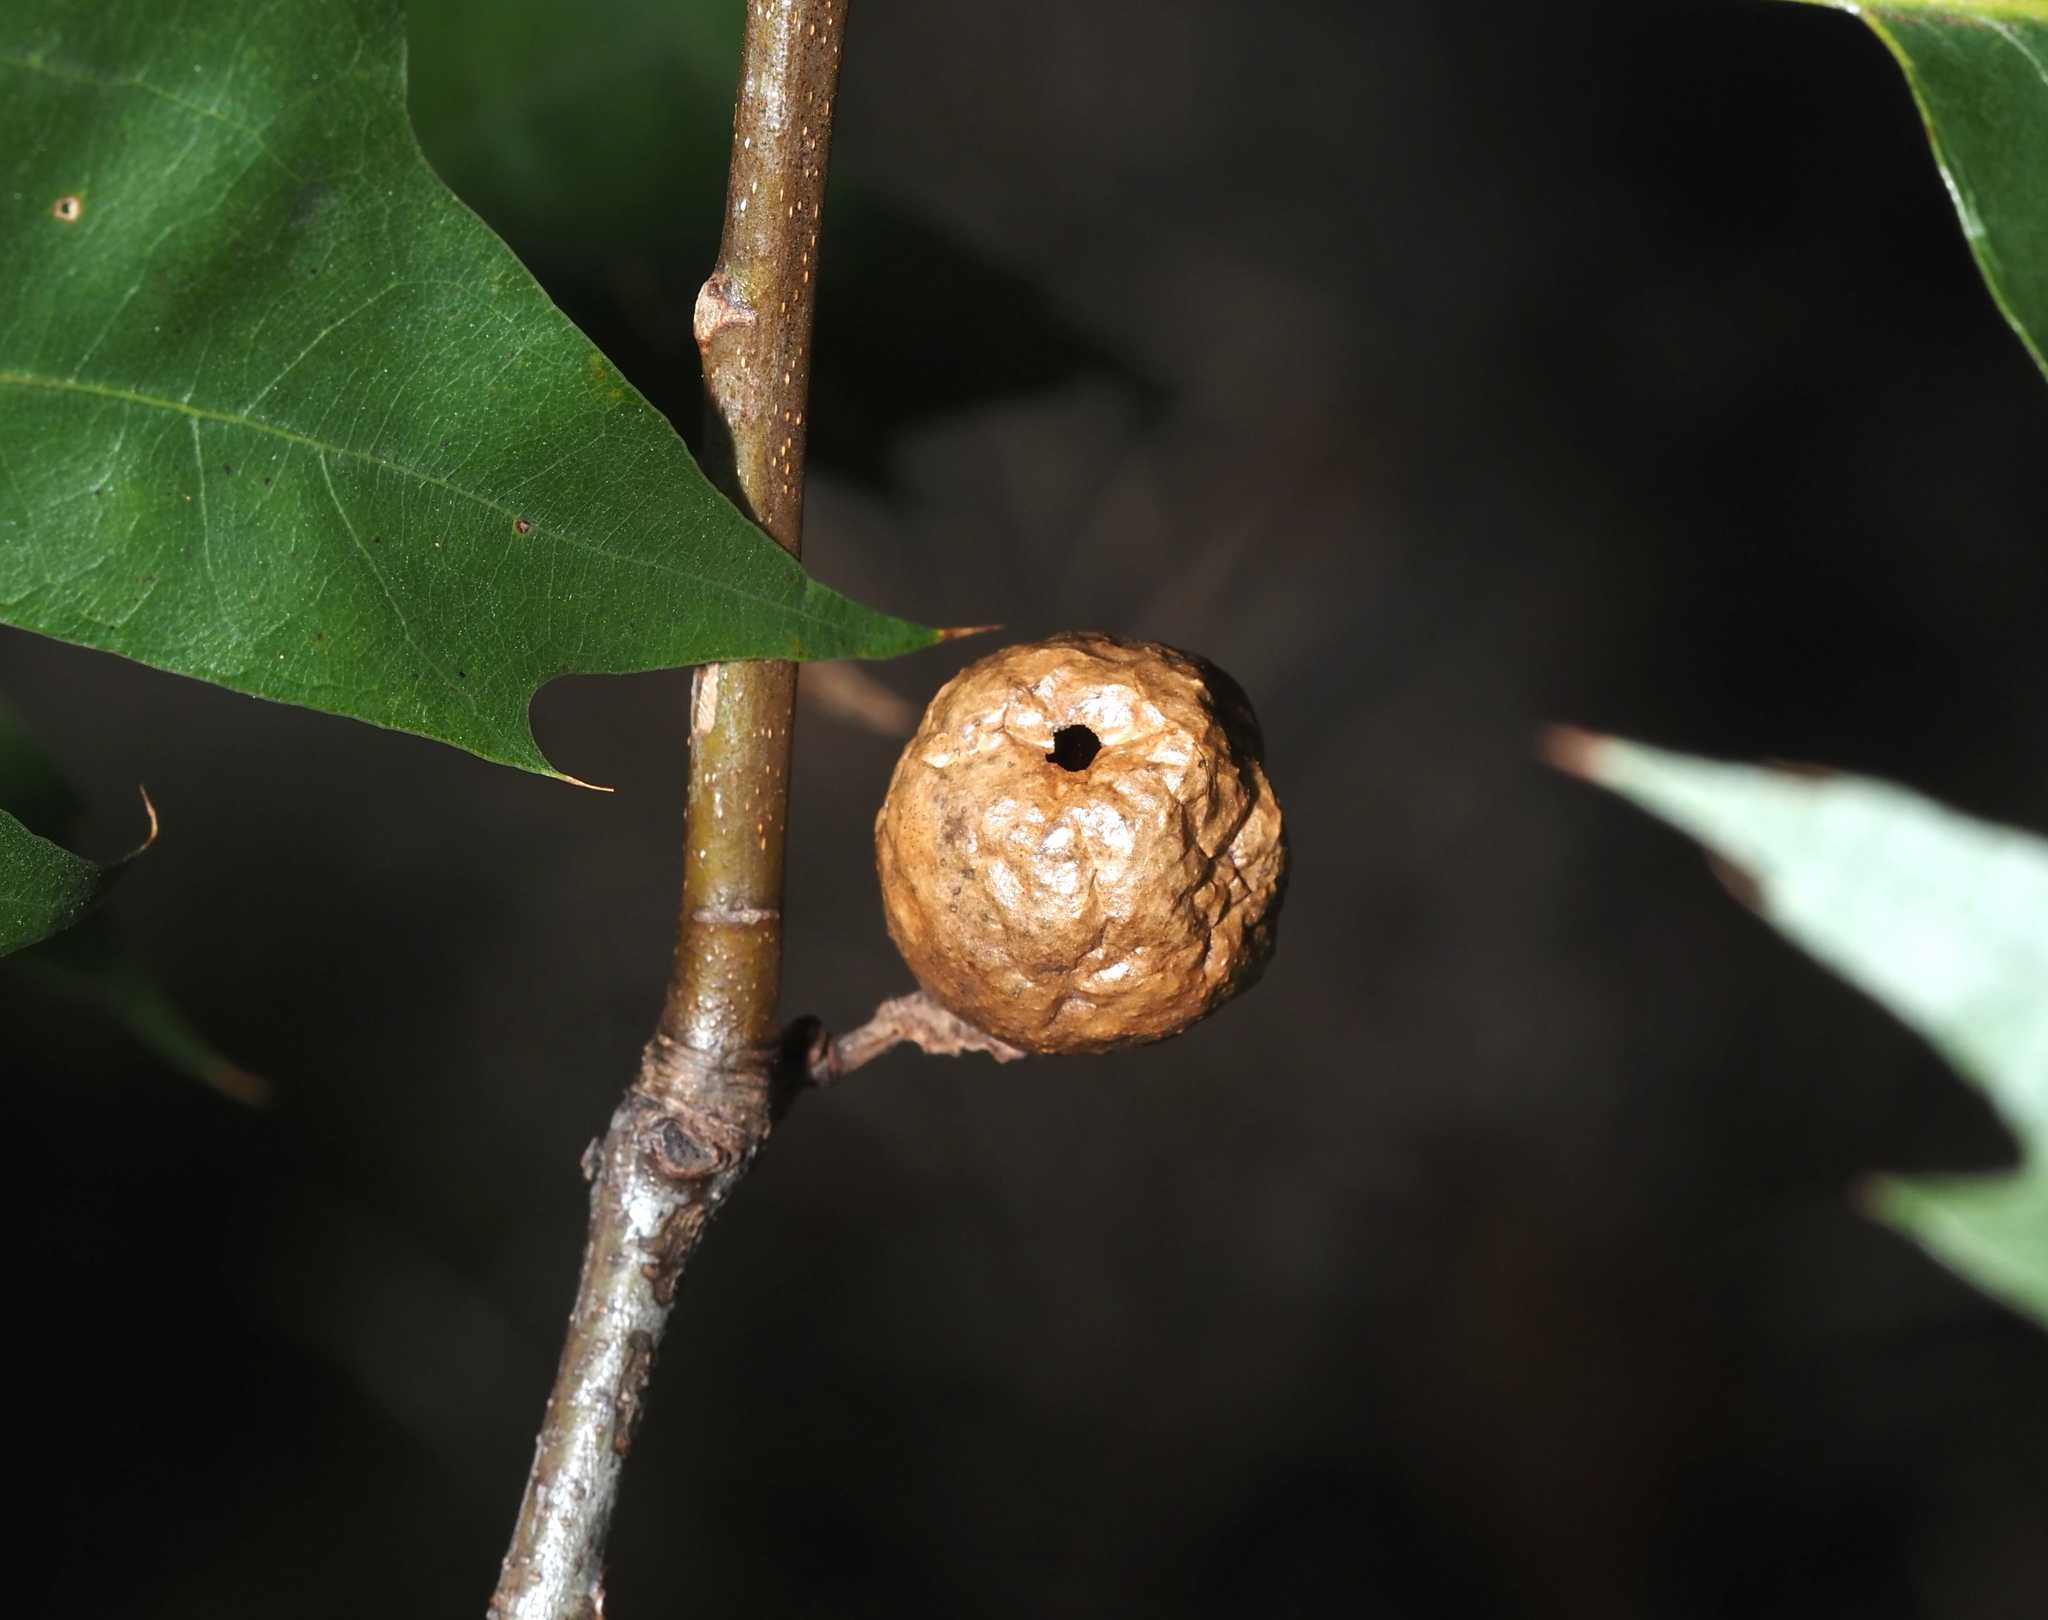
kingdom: Animalia
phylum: Arthropoda
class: Insecta
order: Hymenoptera
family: Cynipidae
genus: Amphibolips
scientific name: Amphibolips
